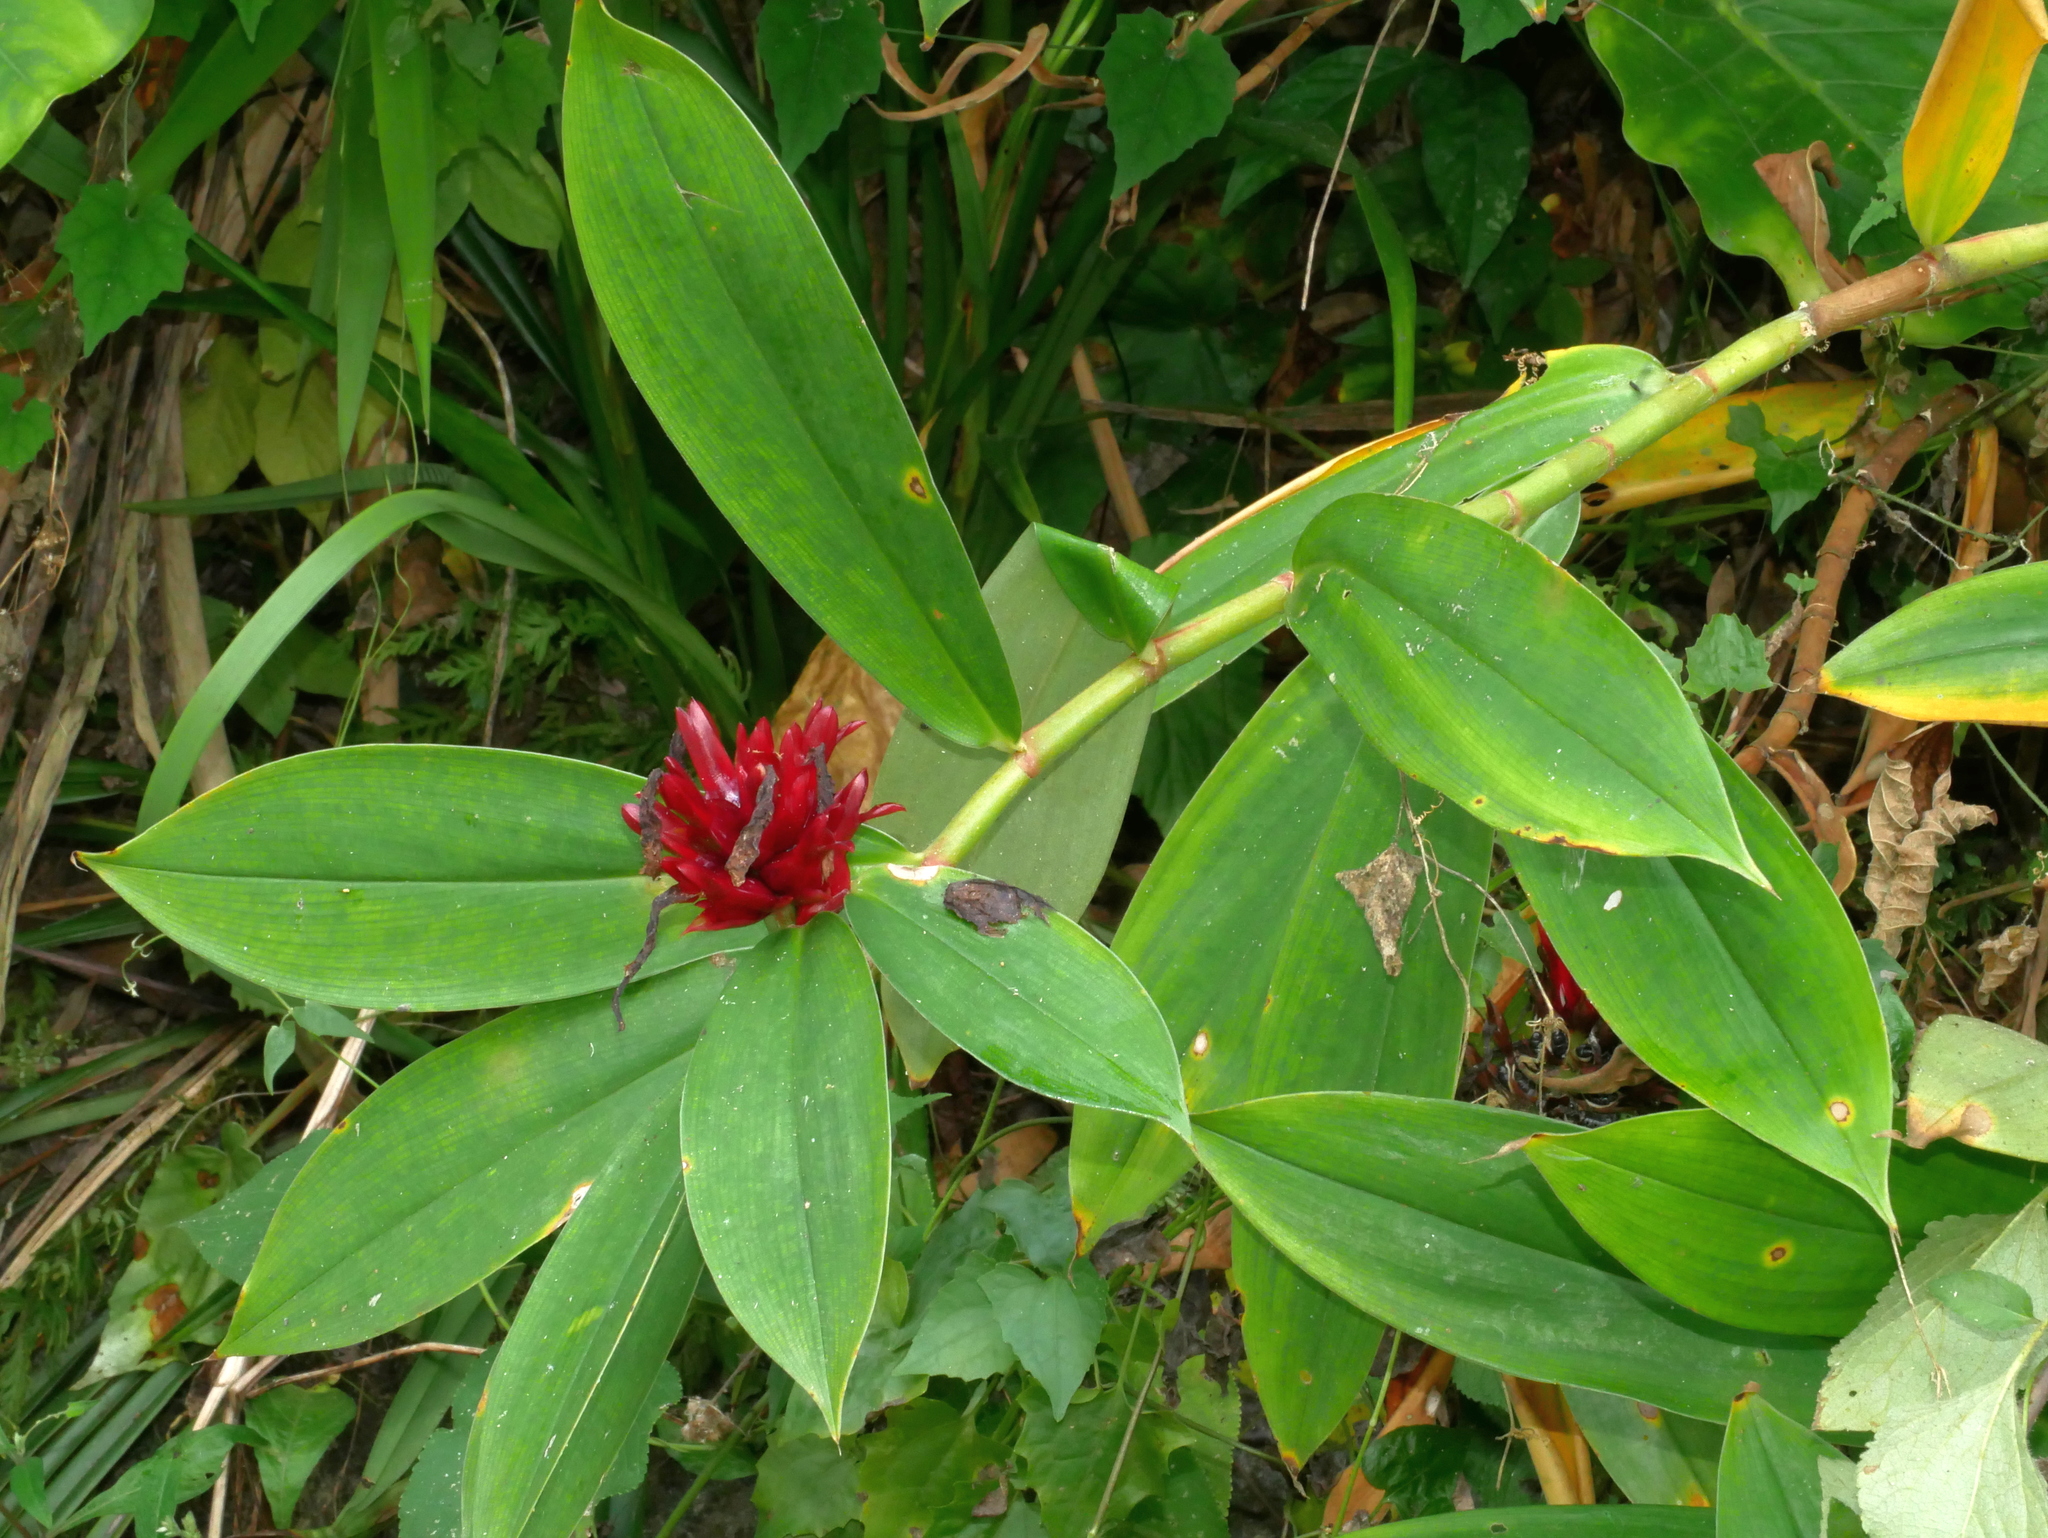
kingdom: Plantae
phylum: Tracheophyta
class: Liliopsida
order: Zingiberales
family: Costaceae
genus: Hellenia
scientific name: Hellenia speciosa
